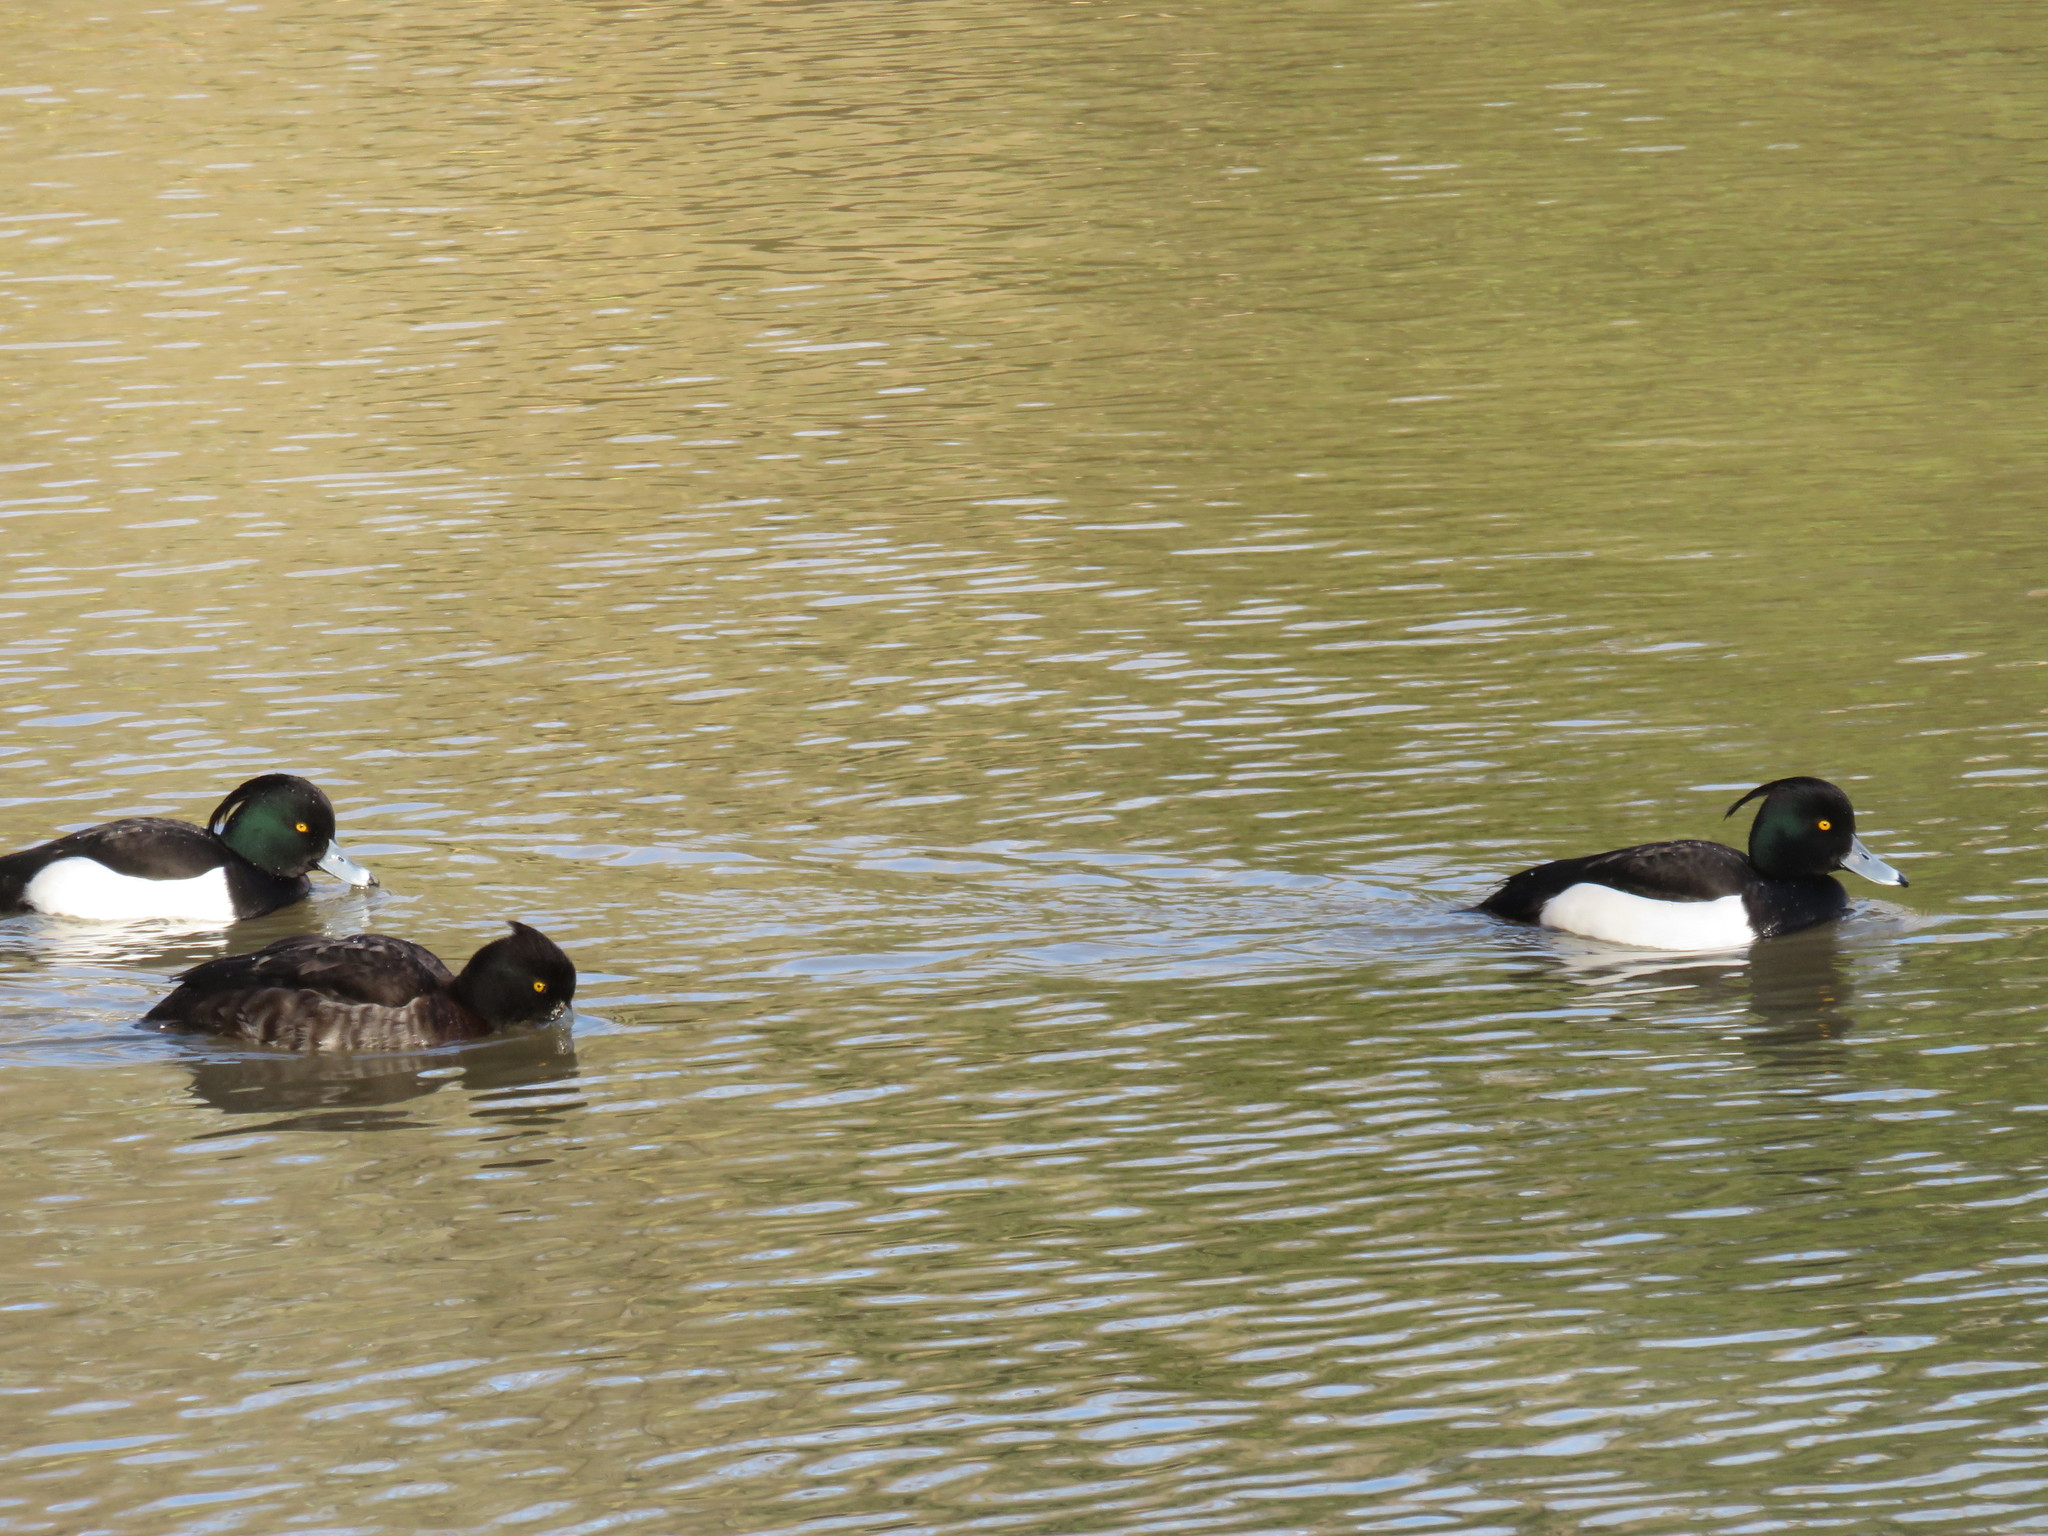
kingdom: Animalia
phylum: Chordata
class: Aves
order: Anseriformes
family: Anatidae
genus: Aythya
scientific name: Aythya fuligula
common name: Tufted duck
